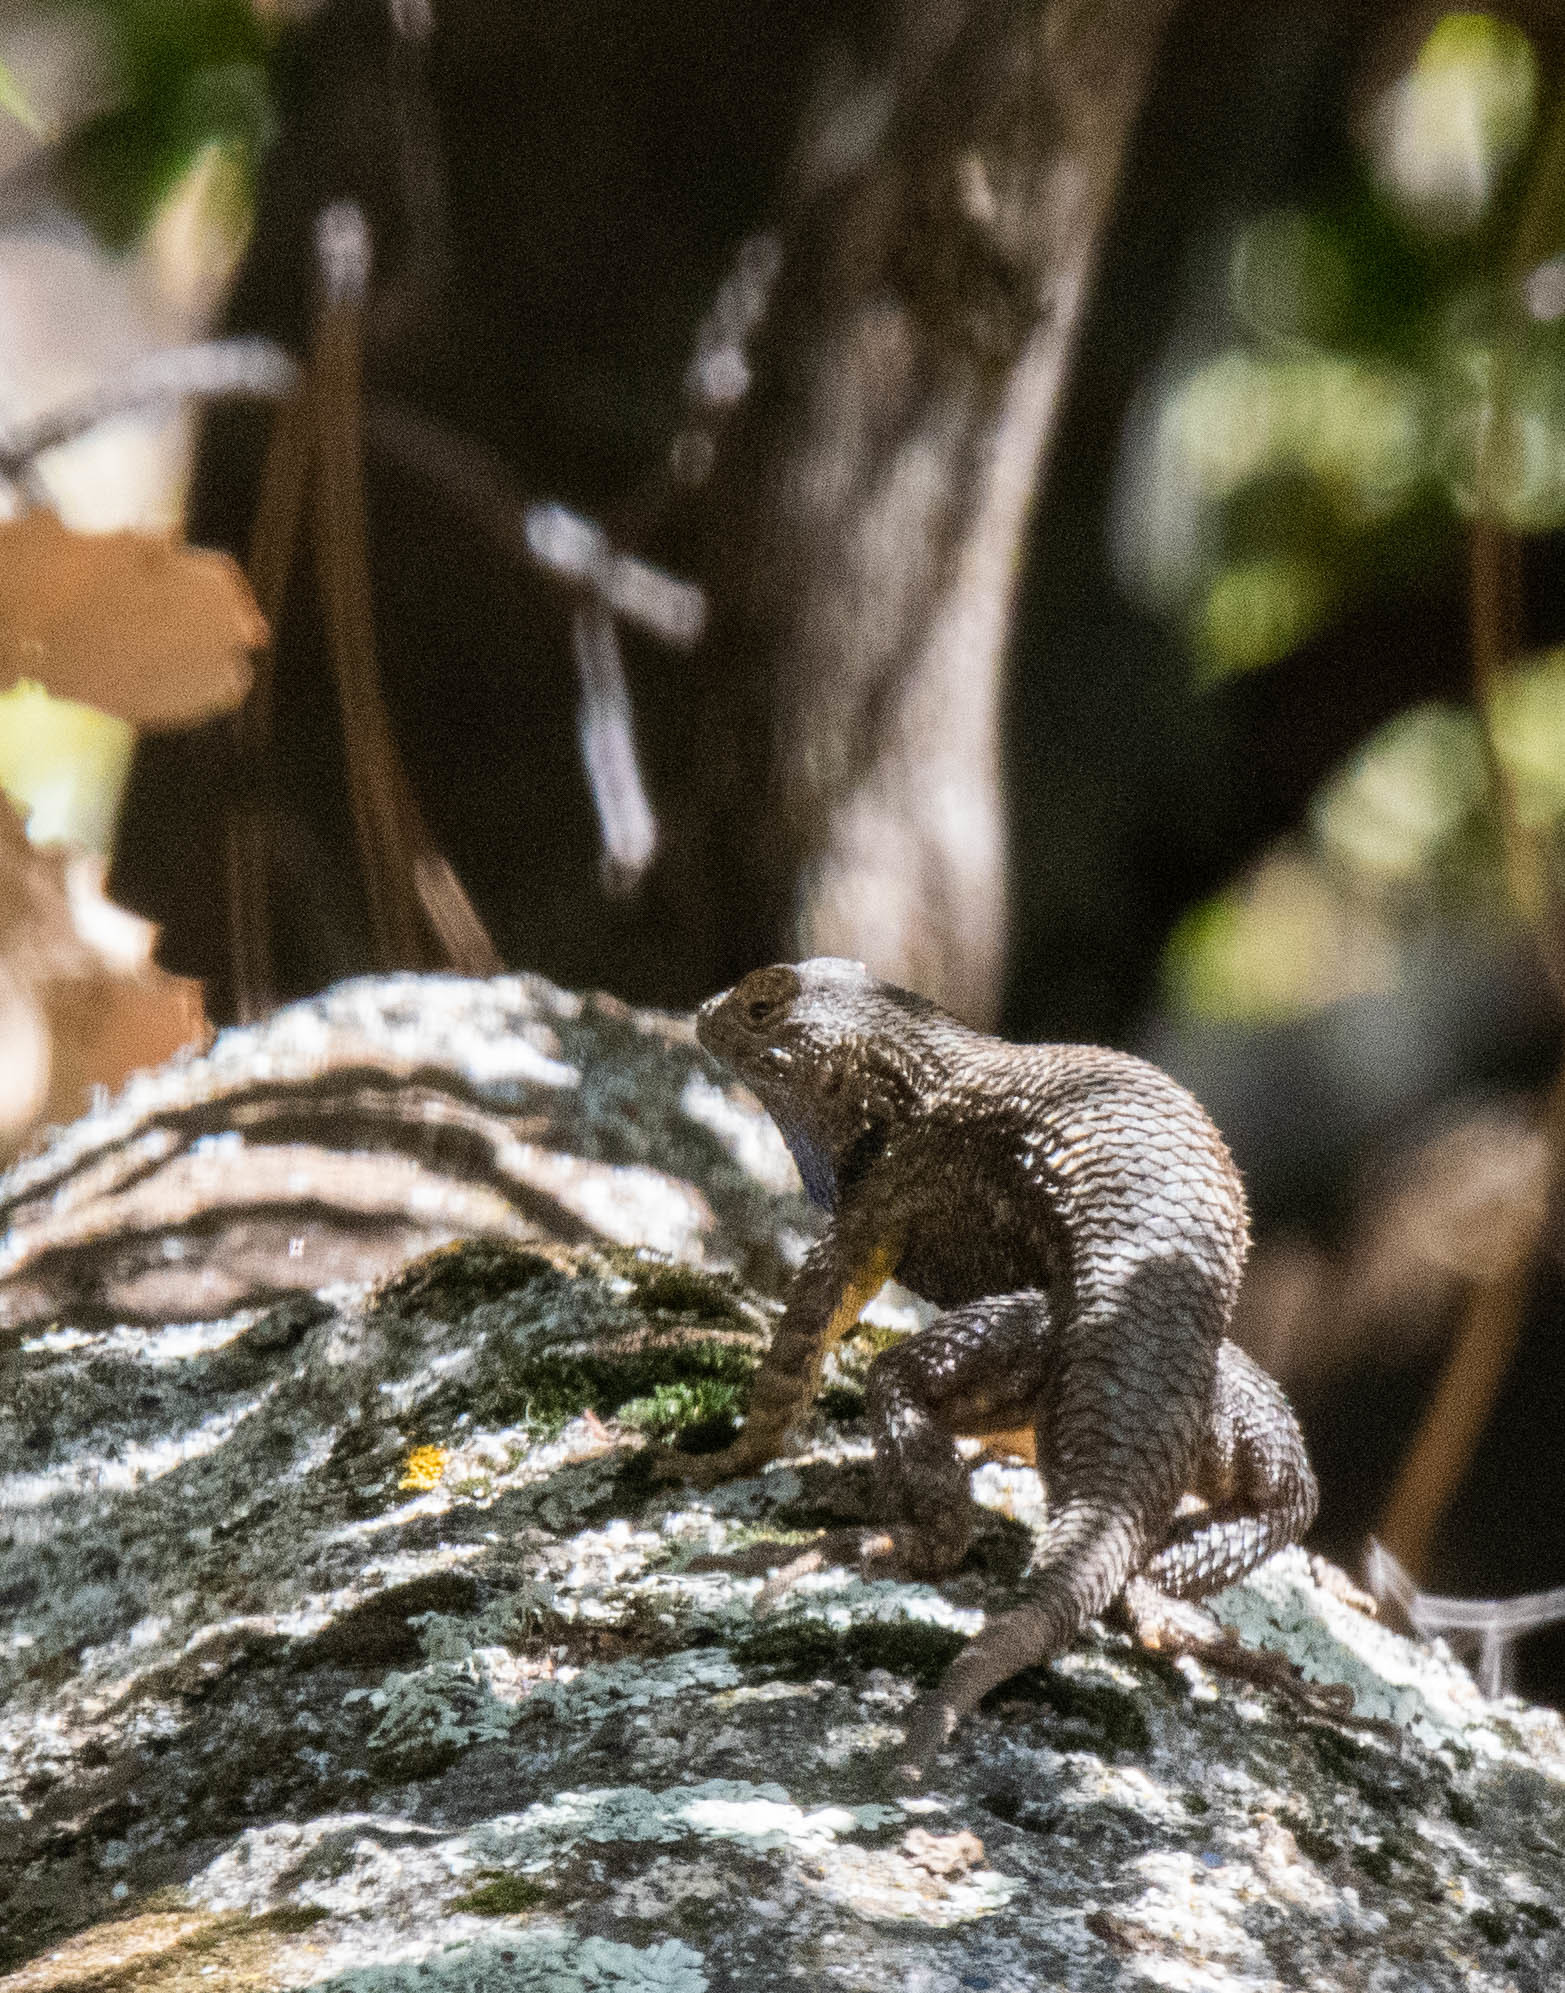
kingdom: Animalia
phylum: Chordata
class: Squamata
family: Phrynosomatidae
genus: Sceloporus
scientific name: Sceloporus occidentalis
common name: Western fence lizard
